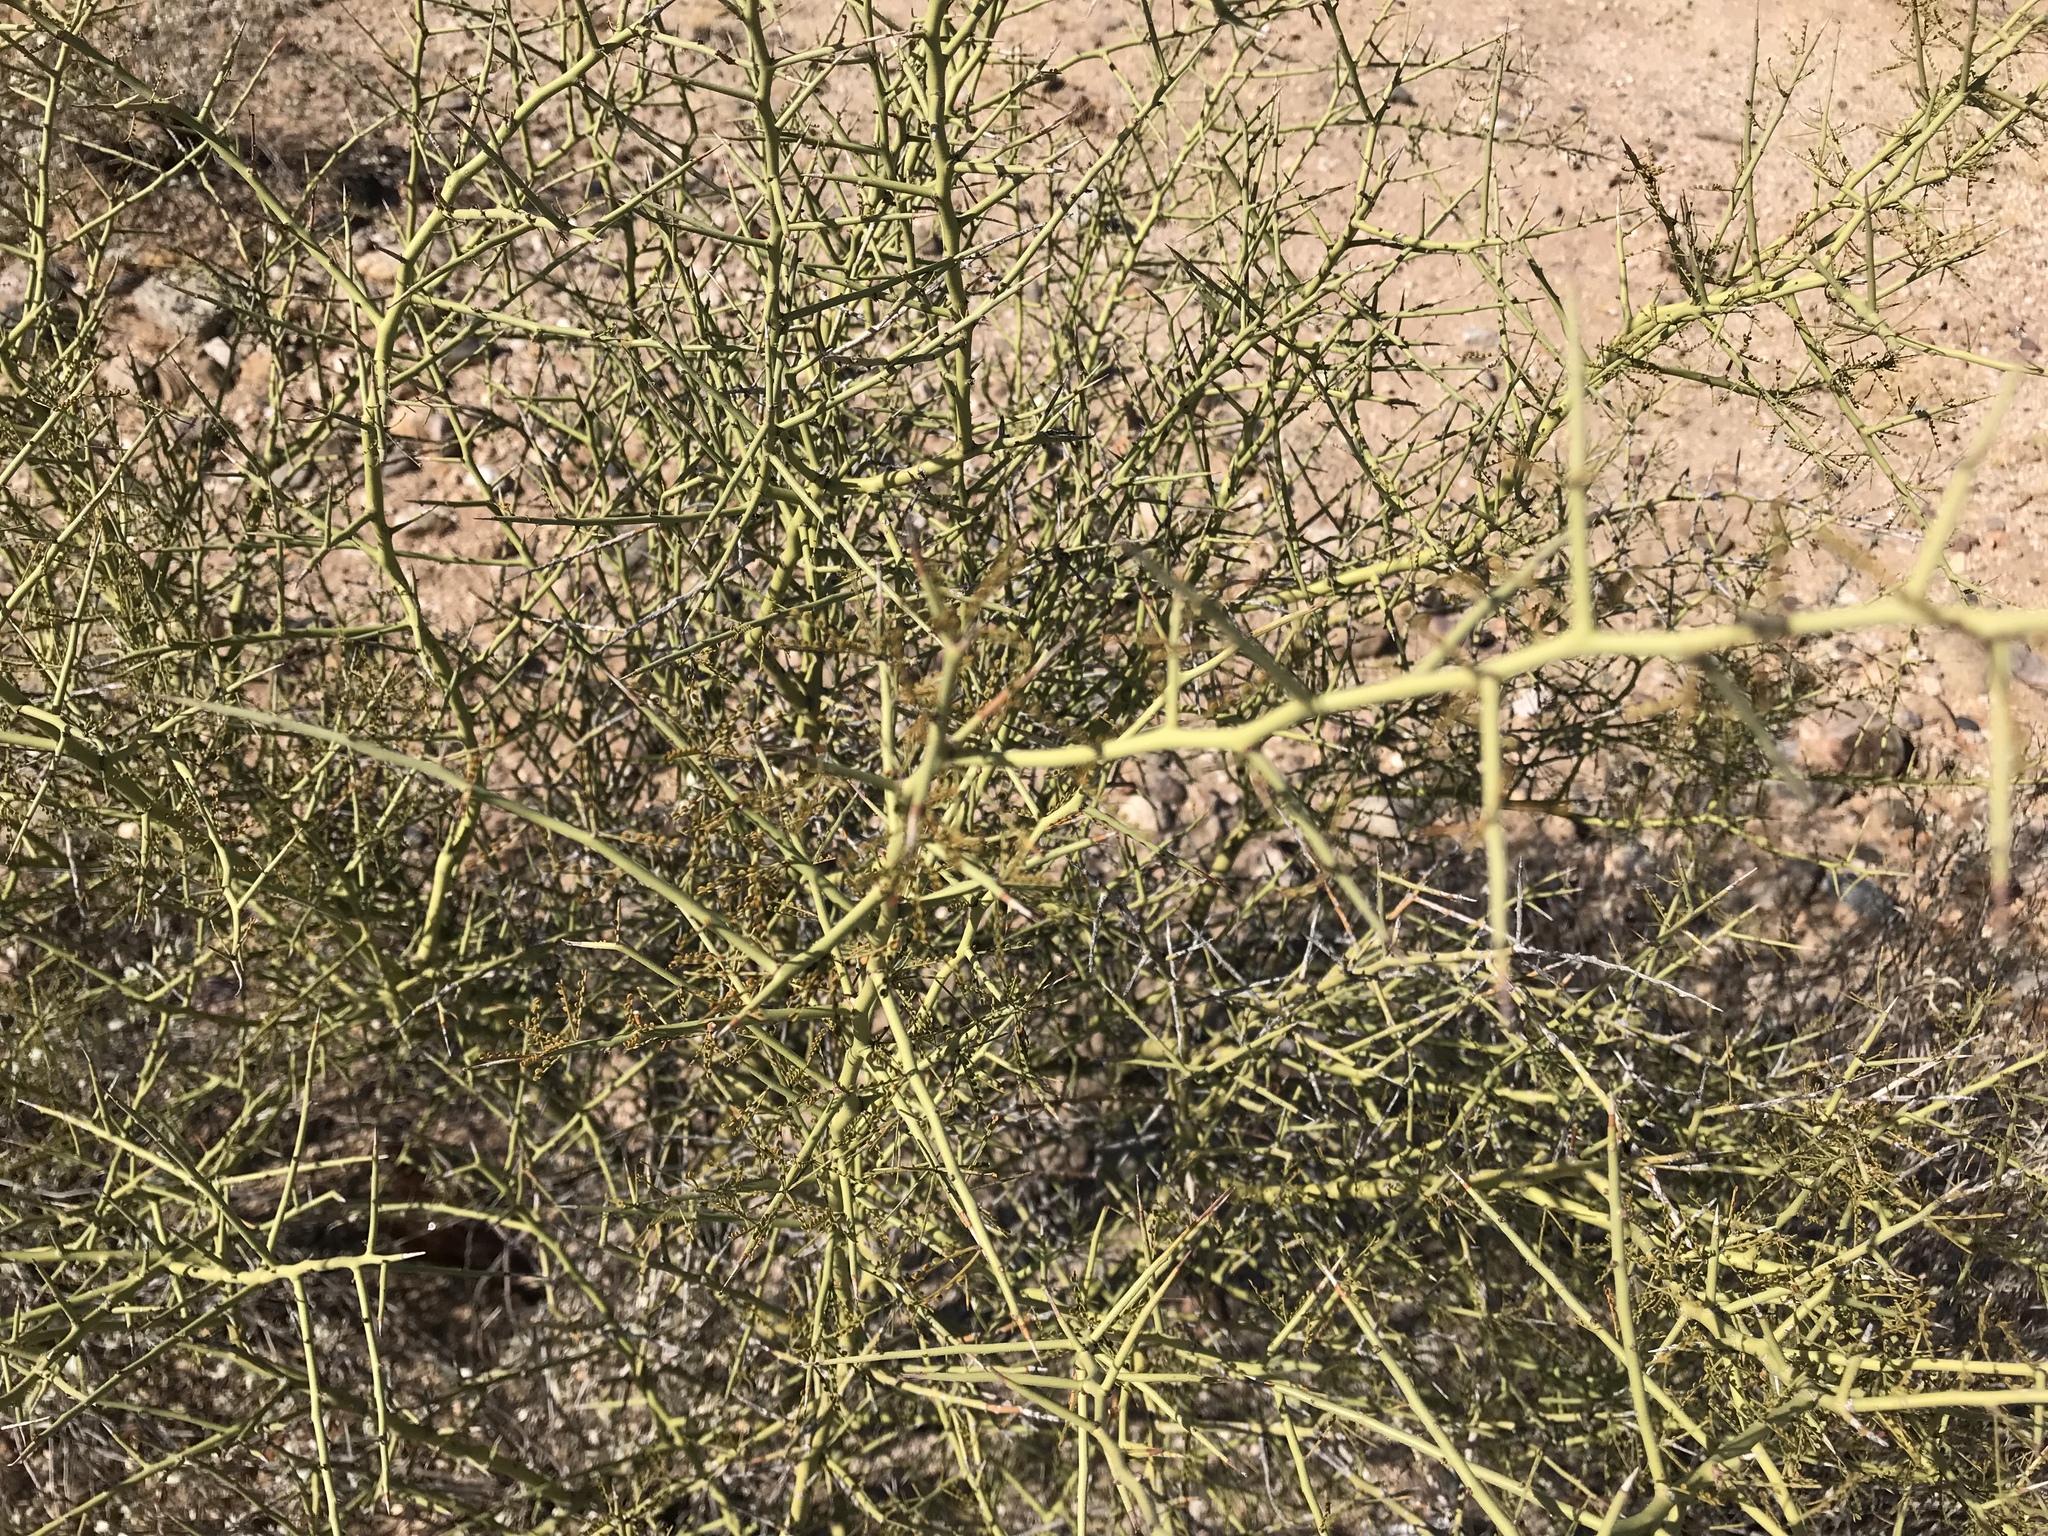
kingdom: Plantae
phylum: Tracheophyta
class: Magnoliopsida
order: Fabales
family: Fabaceae
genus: Parkinsonia
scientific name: Parkinsonia microphylla
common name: Yellow paloverde
